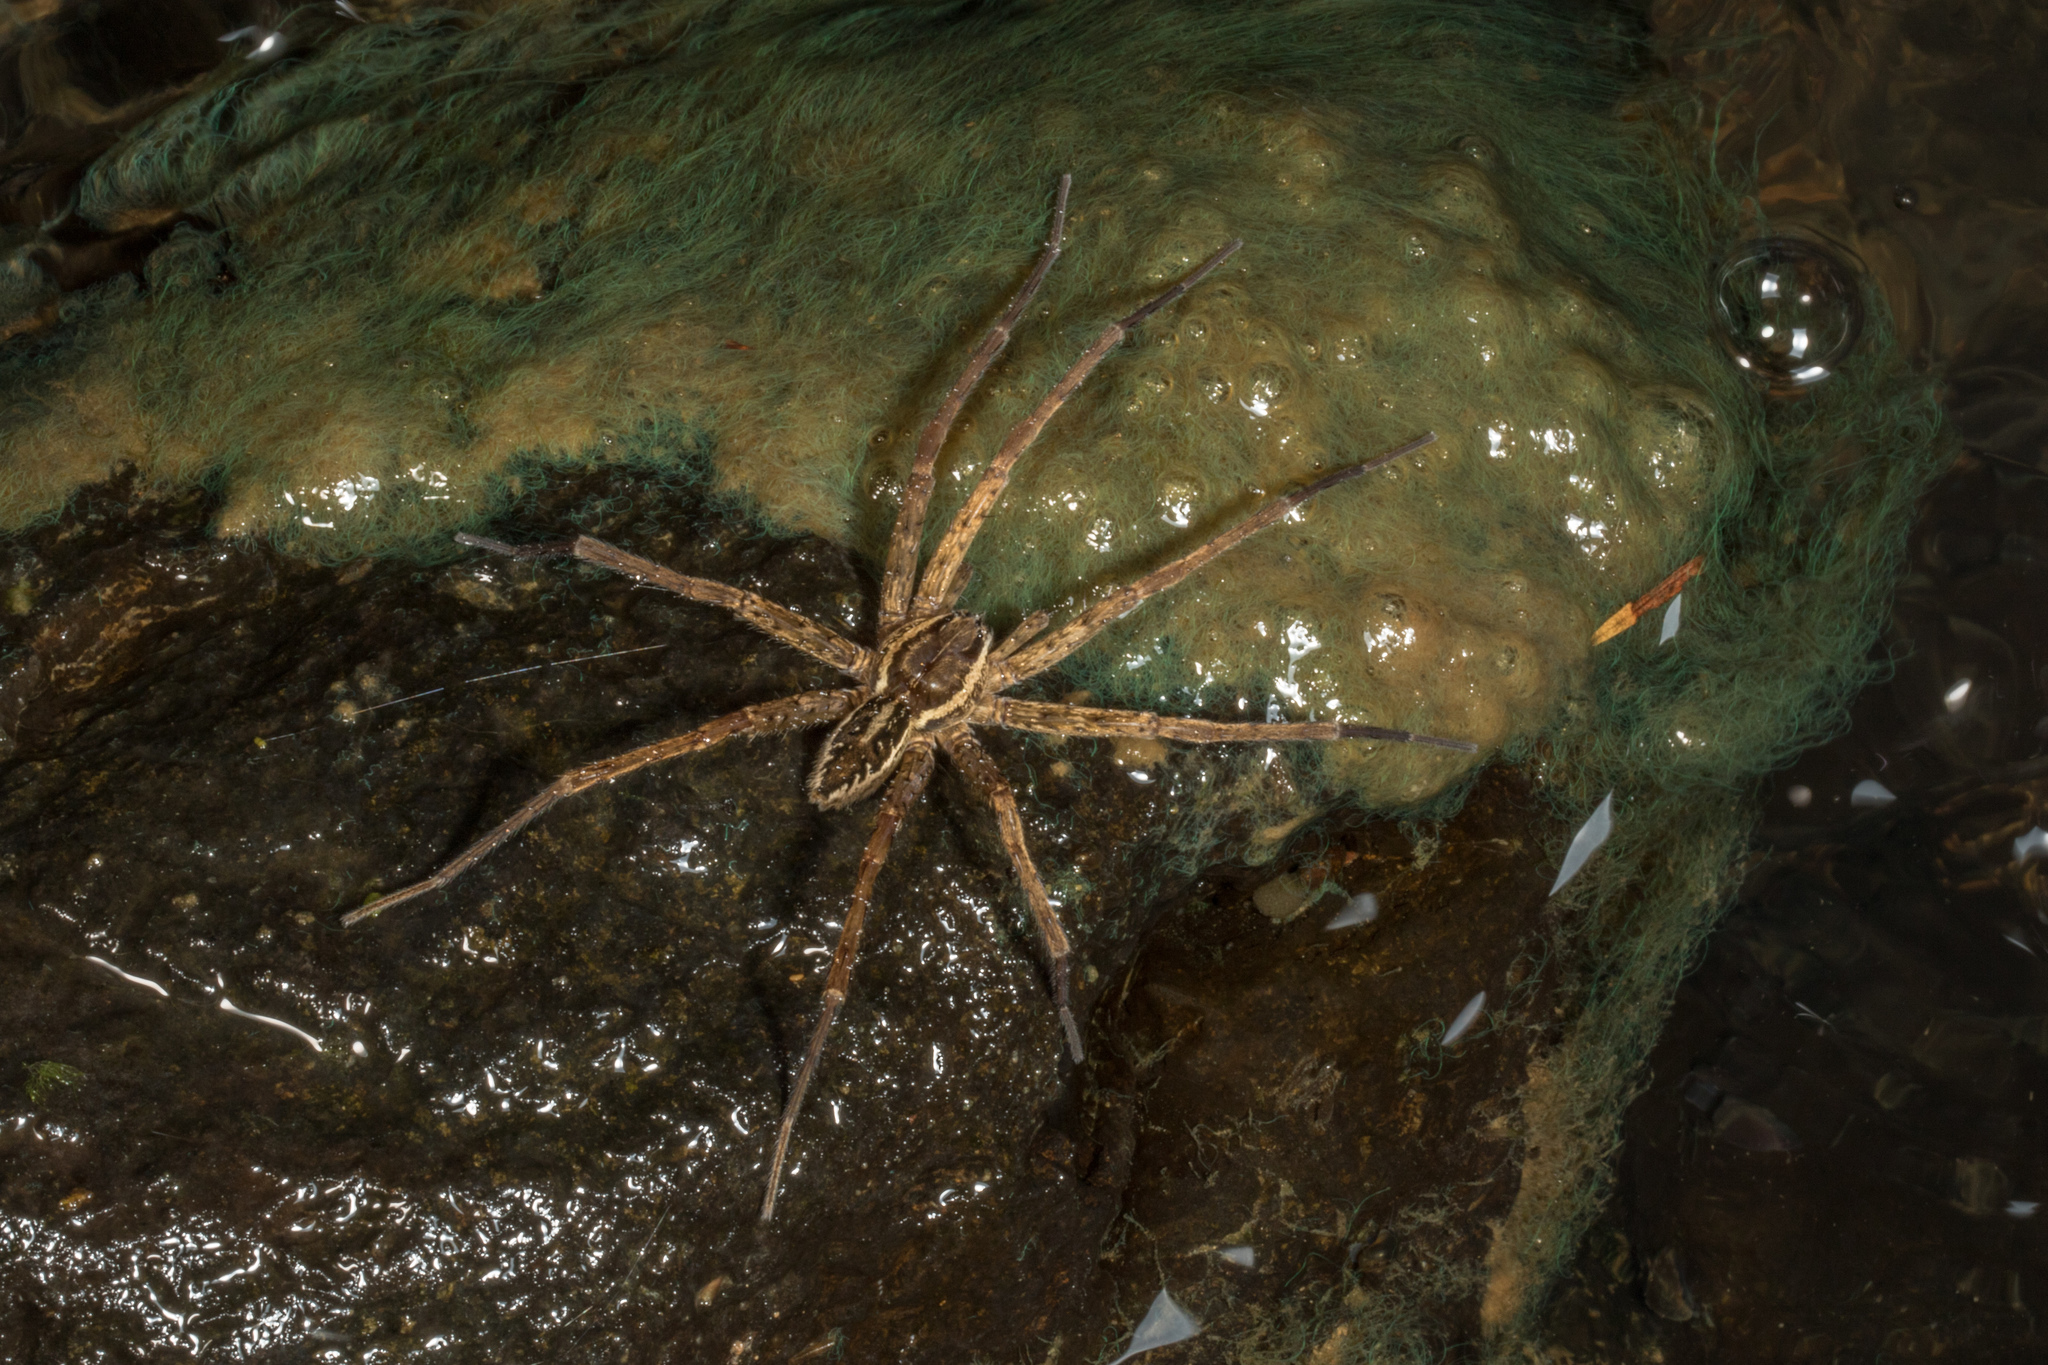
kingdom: Animalia
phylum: Arthropoda
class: Arachnida
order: Araneae
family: Pisauridae
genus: Dolomedes
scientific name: Dolomedes dondalei
